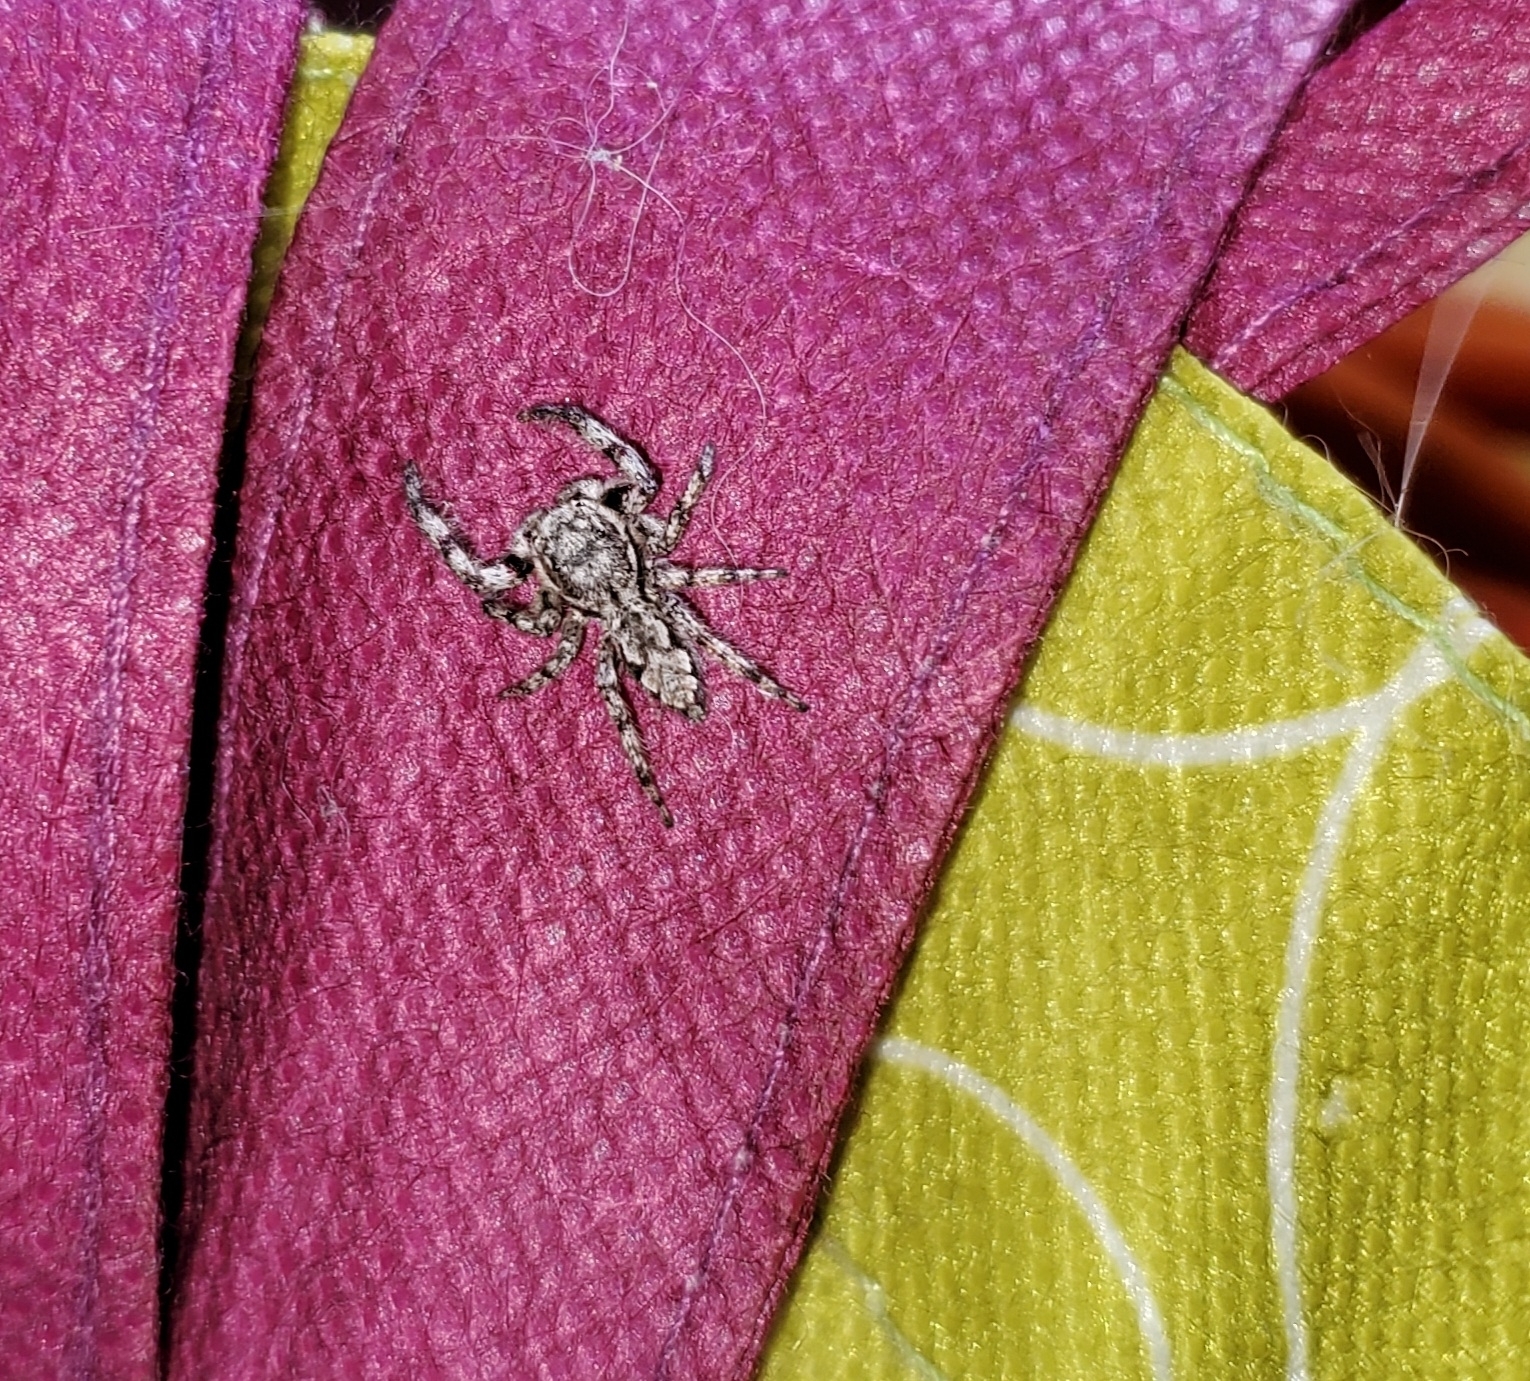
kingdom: Animalia
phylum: Arthropoda
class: Arachnida
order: Araneae
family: Salticidae
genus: Platycryptus
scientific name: Platycryptus undatus
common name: Tan jumping spider
